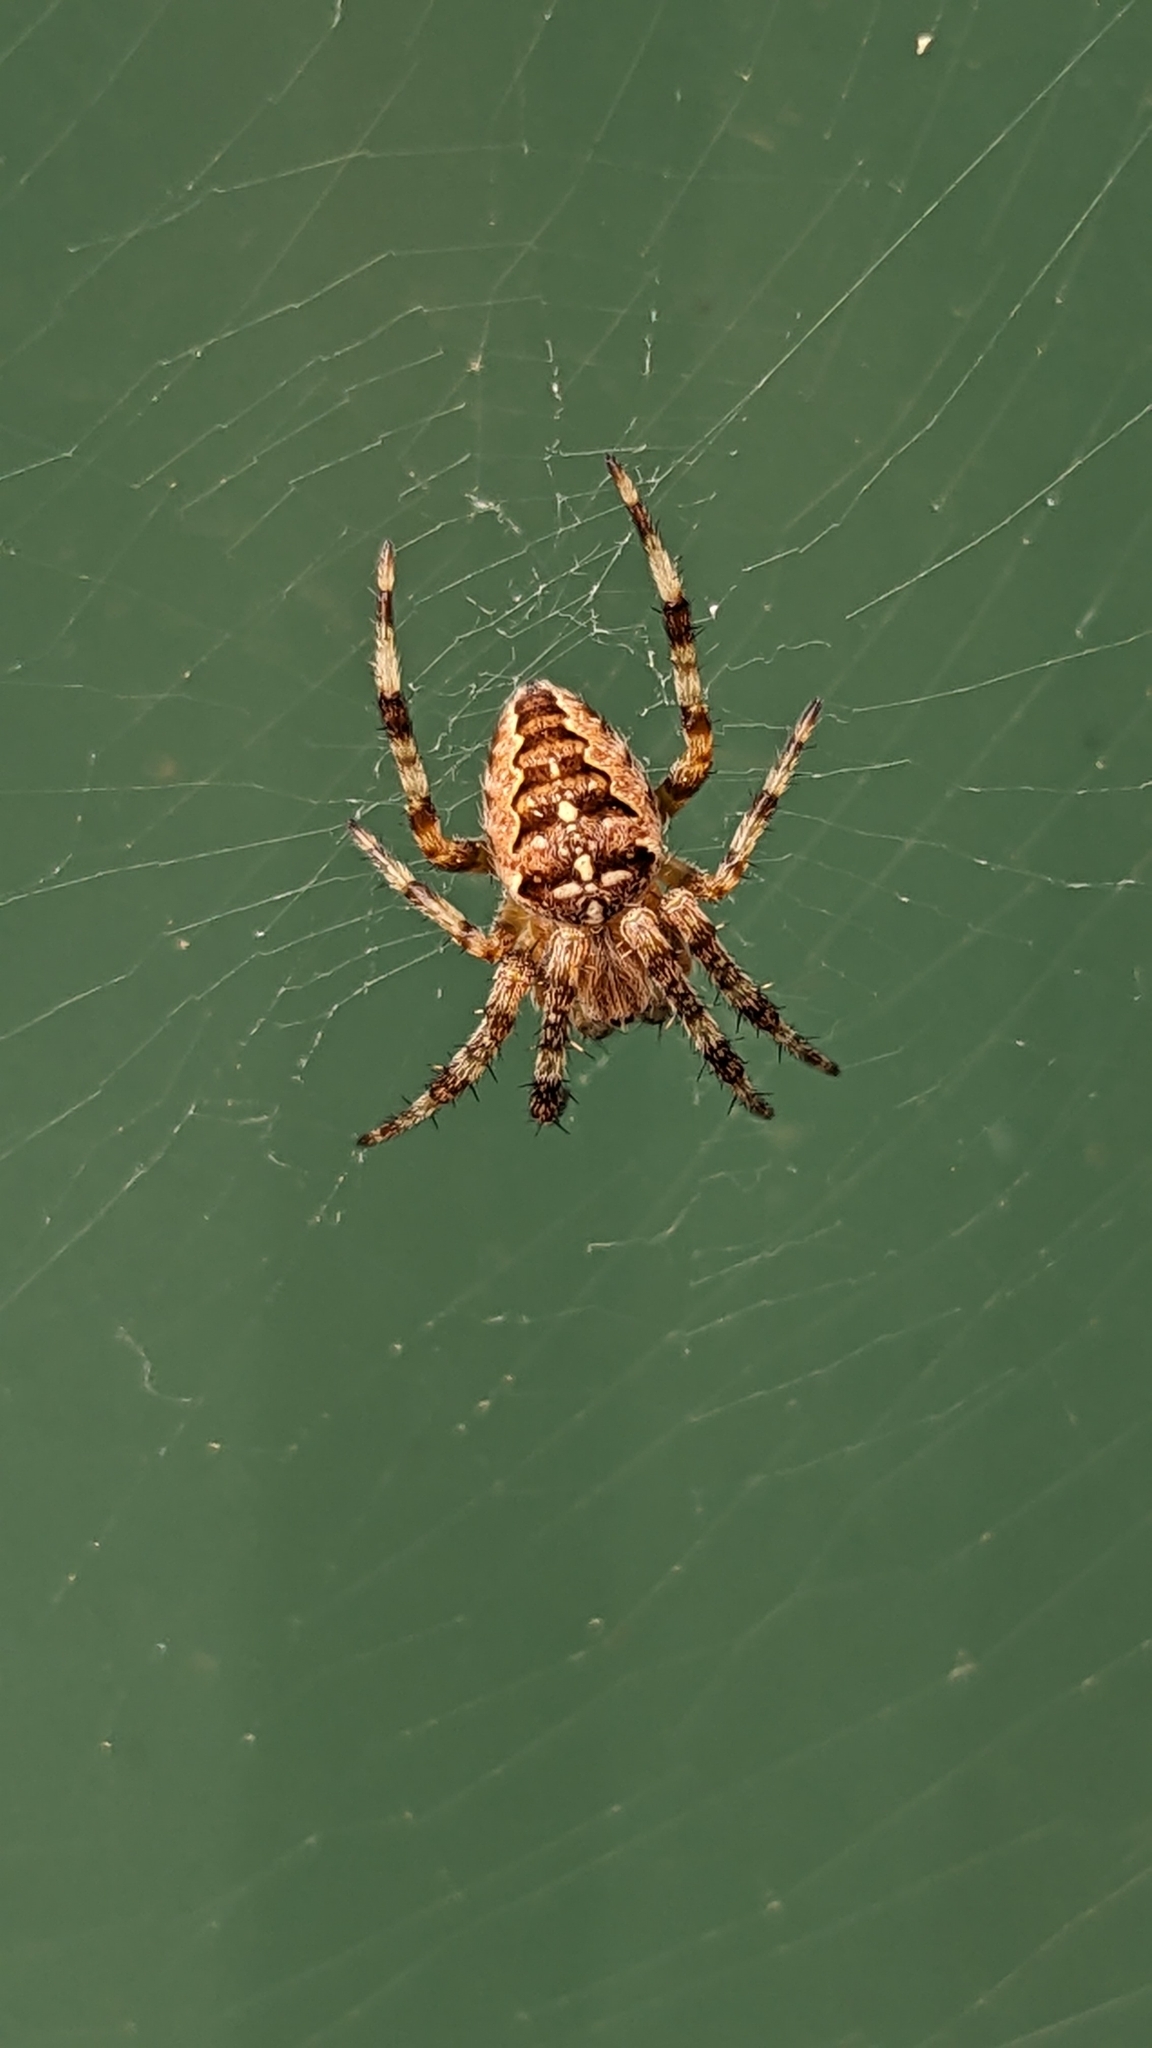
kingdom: Animalia
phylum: Arthropoda
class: Arachnida
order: Araneae
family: Araneidae
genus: Araneus
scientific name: Araneus diadematus
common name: Cross orbweaver
